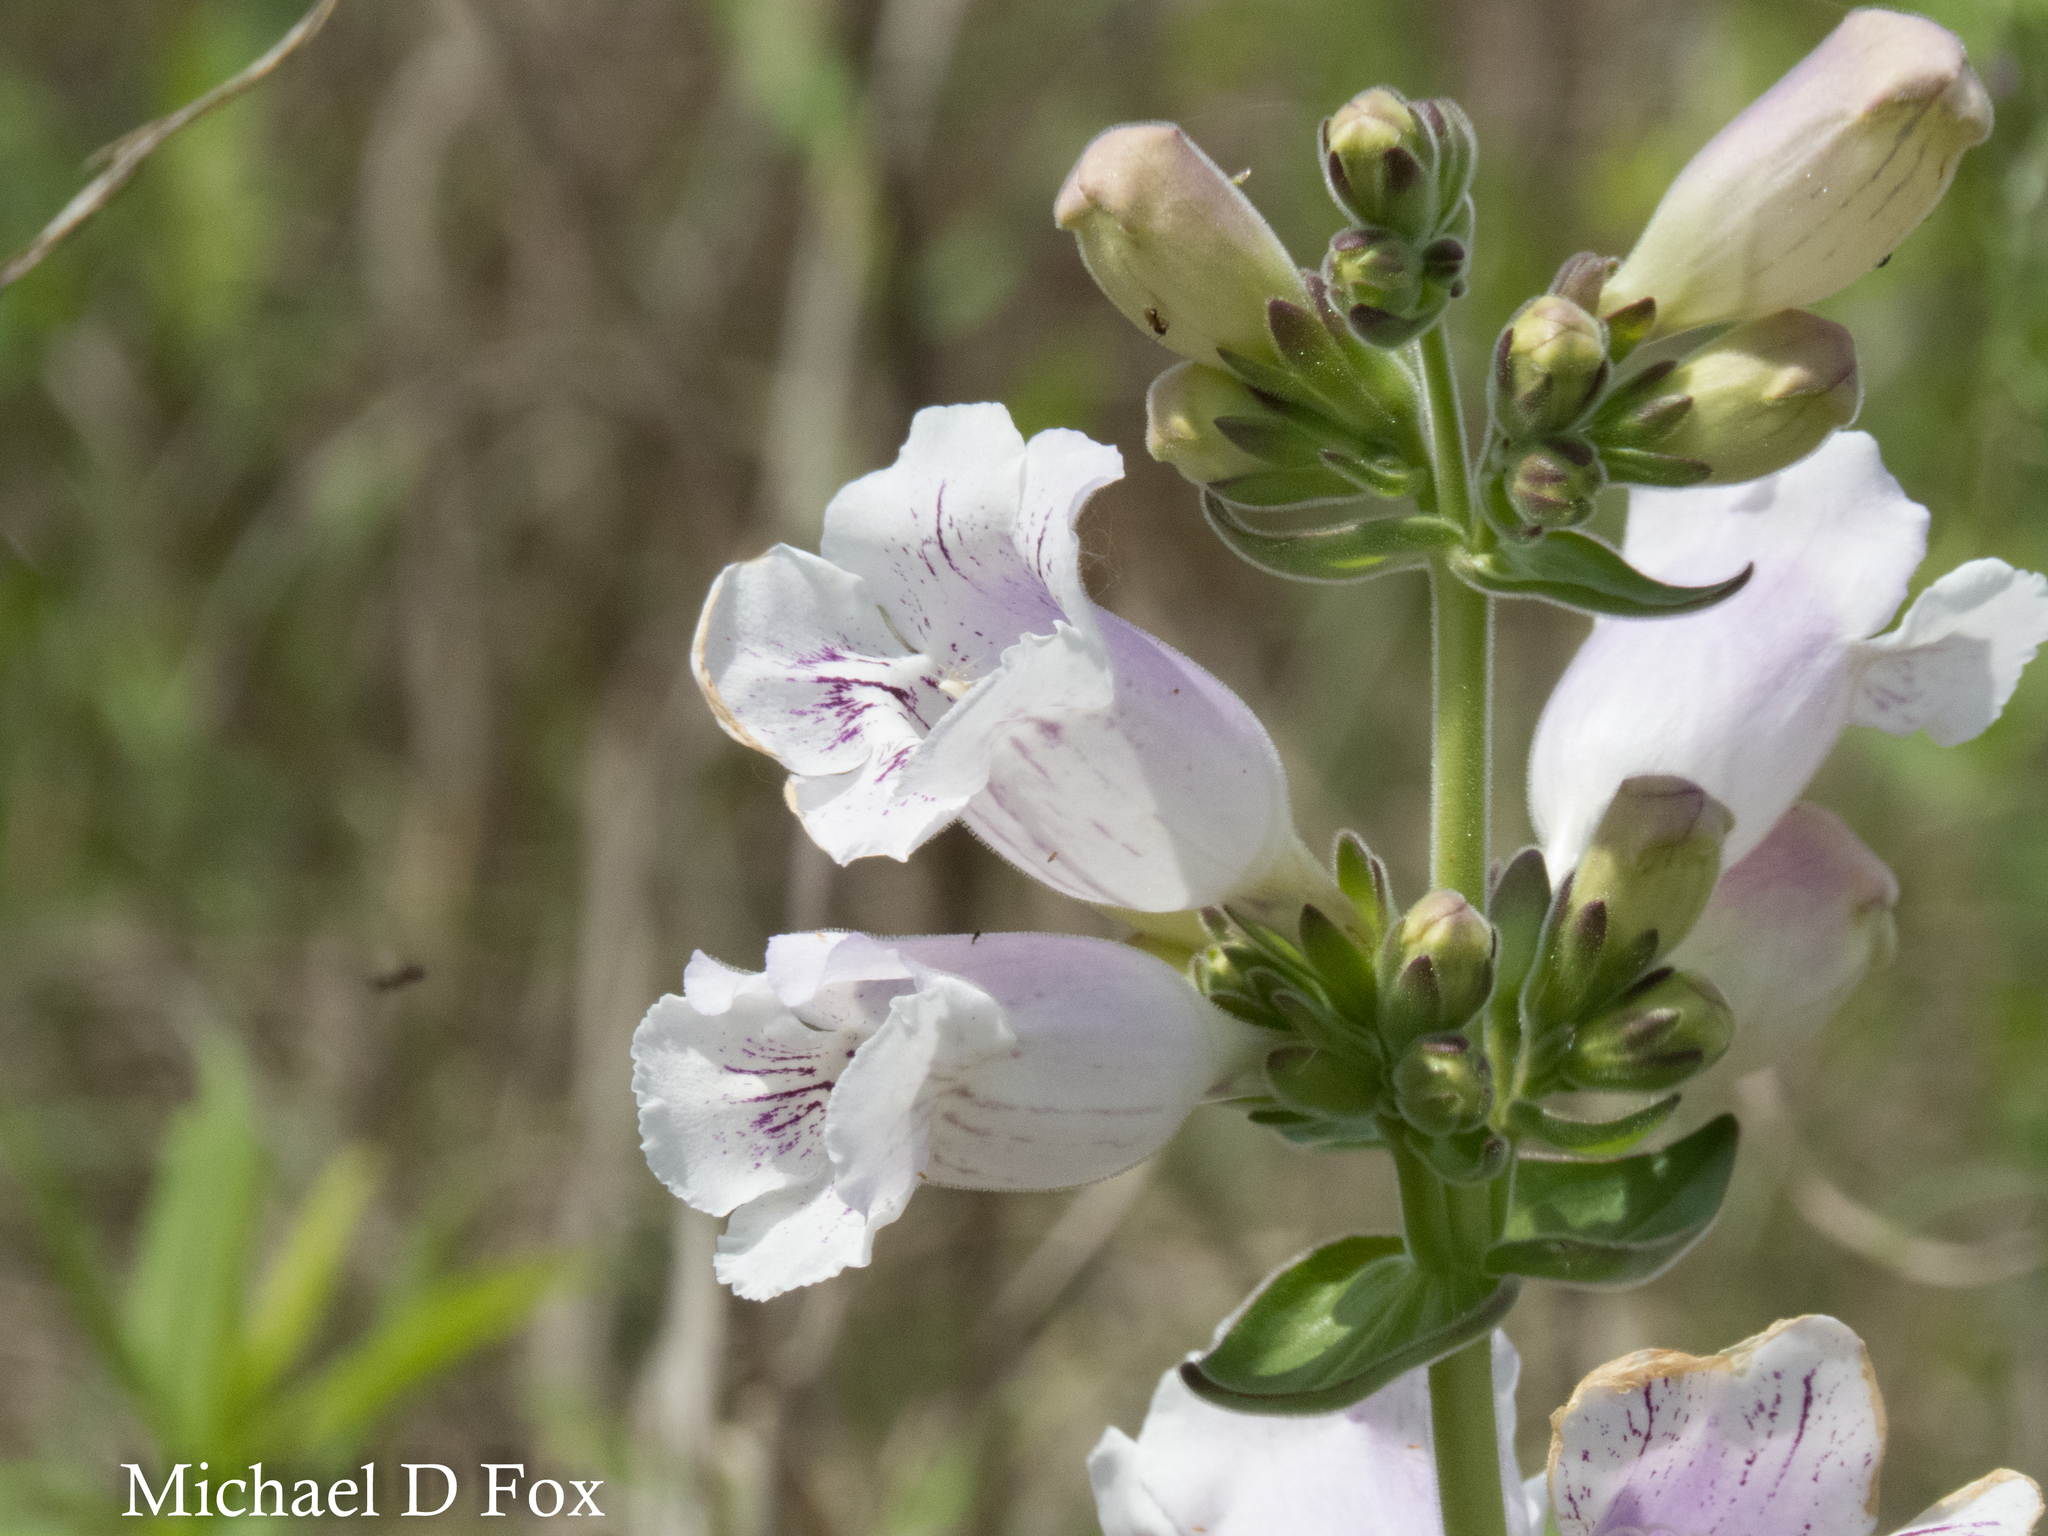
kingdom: Plantae
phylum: Tracheophyta
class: Magnoliopsida
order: Lamiales
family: Plantaginaceae
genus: Penstemon
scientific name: Penstemon cobaea
